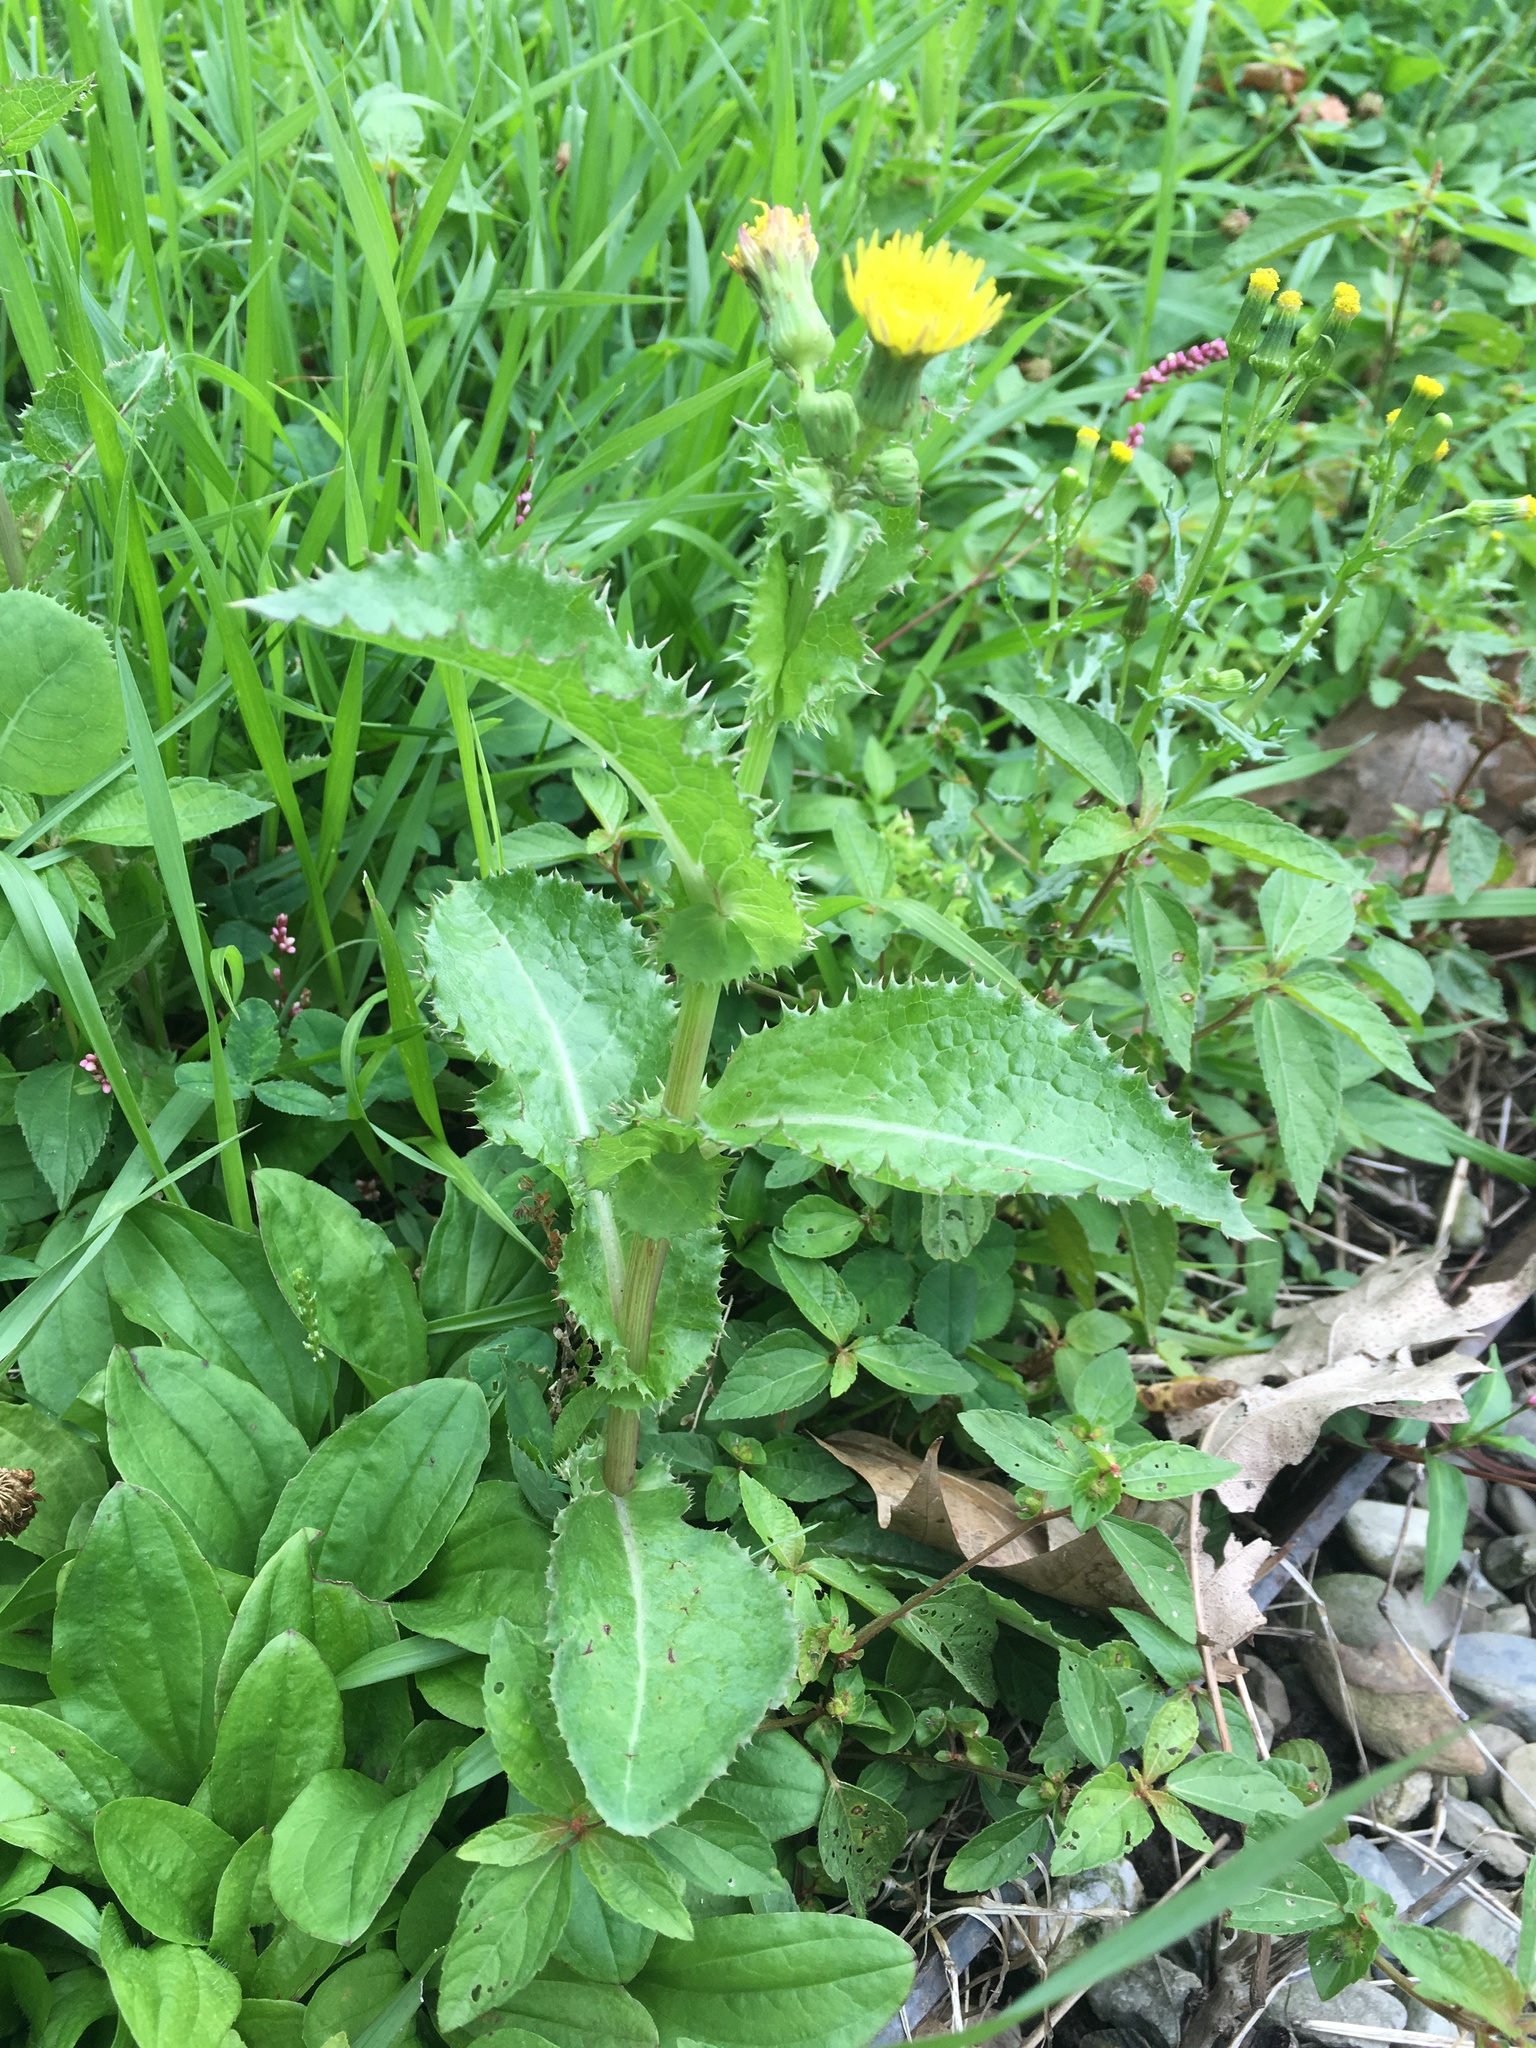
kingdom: Plantae
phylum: Tracheophyta
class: Magnoliopsida
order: Asterales
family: Asteraceae
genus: Sonchus
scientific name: Sonchus asper
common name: Prickly sow-thistle
